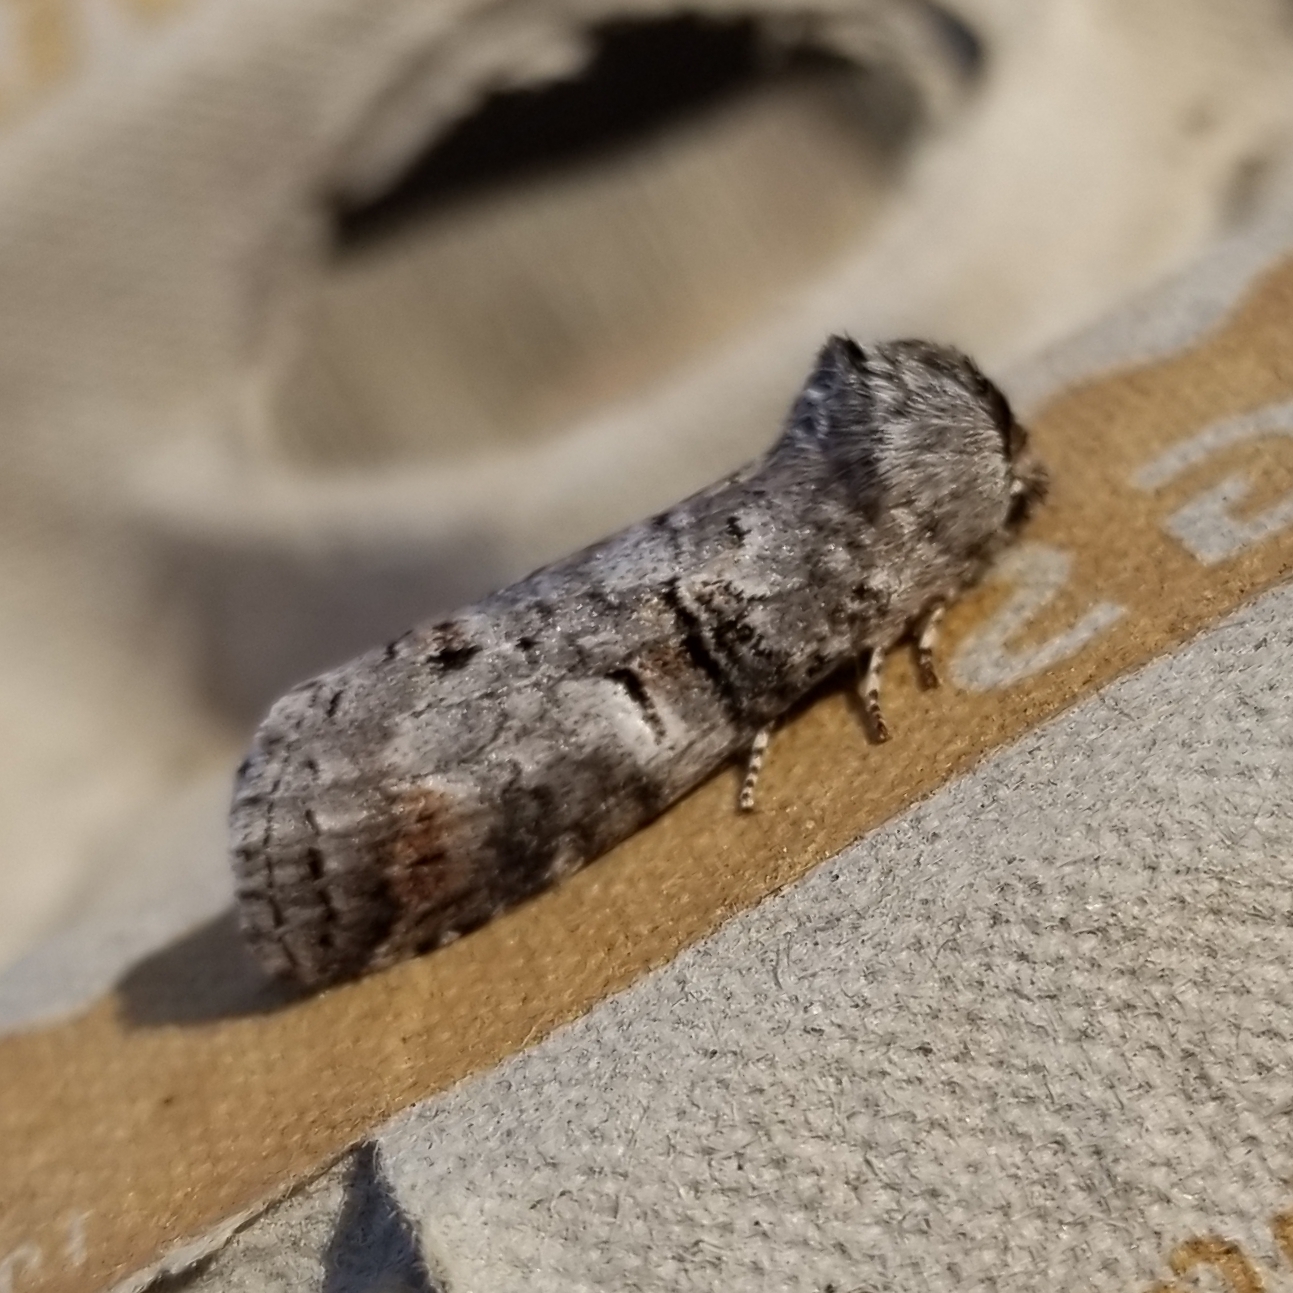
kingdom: Animalia
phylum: Arthropoda
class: Insecta
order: Lepidoptera
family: Notodontidae
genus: Ellida
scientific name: Ellida caniplaga
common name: Linden prominent
